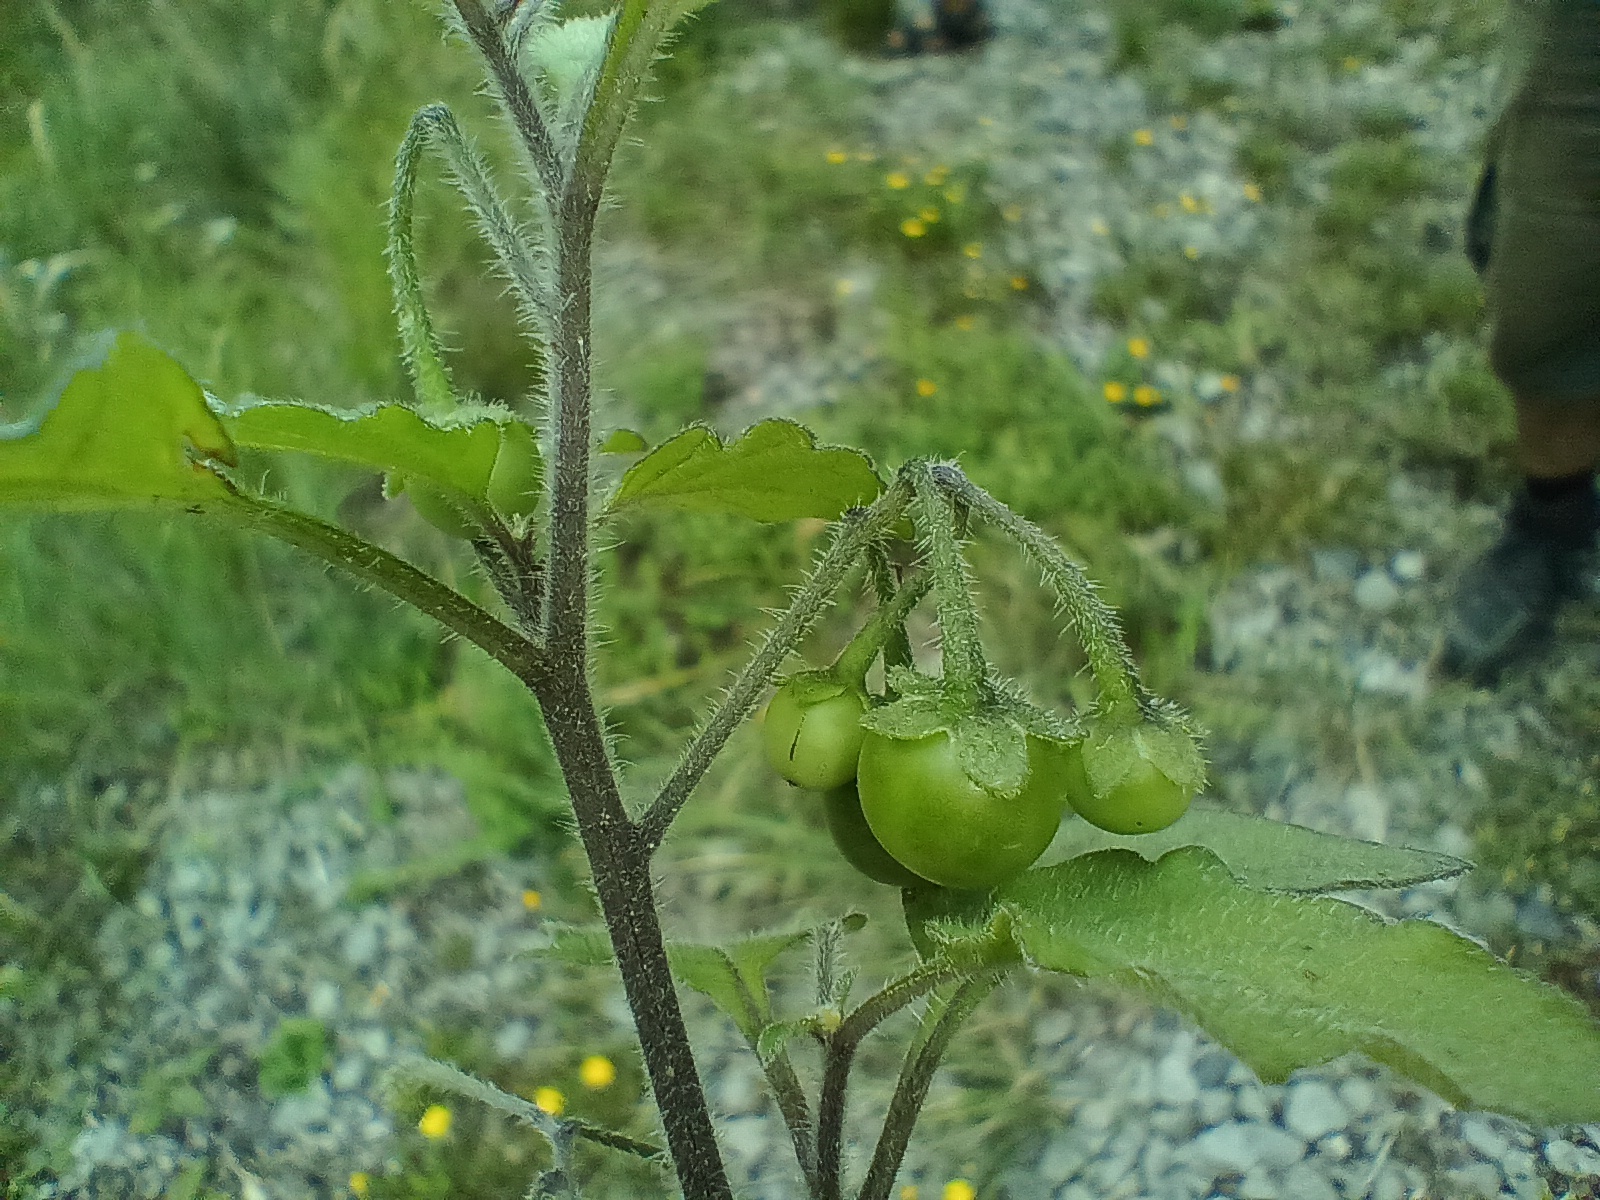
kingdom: Plantae
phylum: Tracheophyta
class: Magnoliopsida
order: Solanales
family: Solanaceae
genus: Solanum
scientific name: Solanum decipiens
